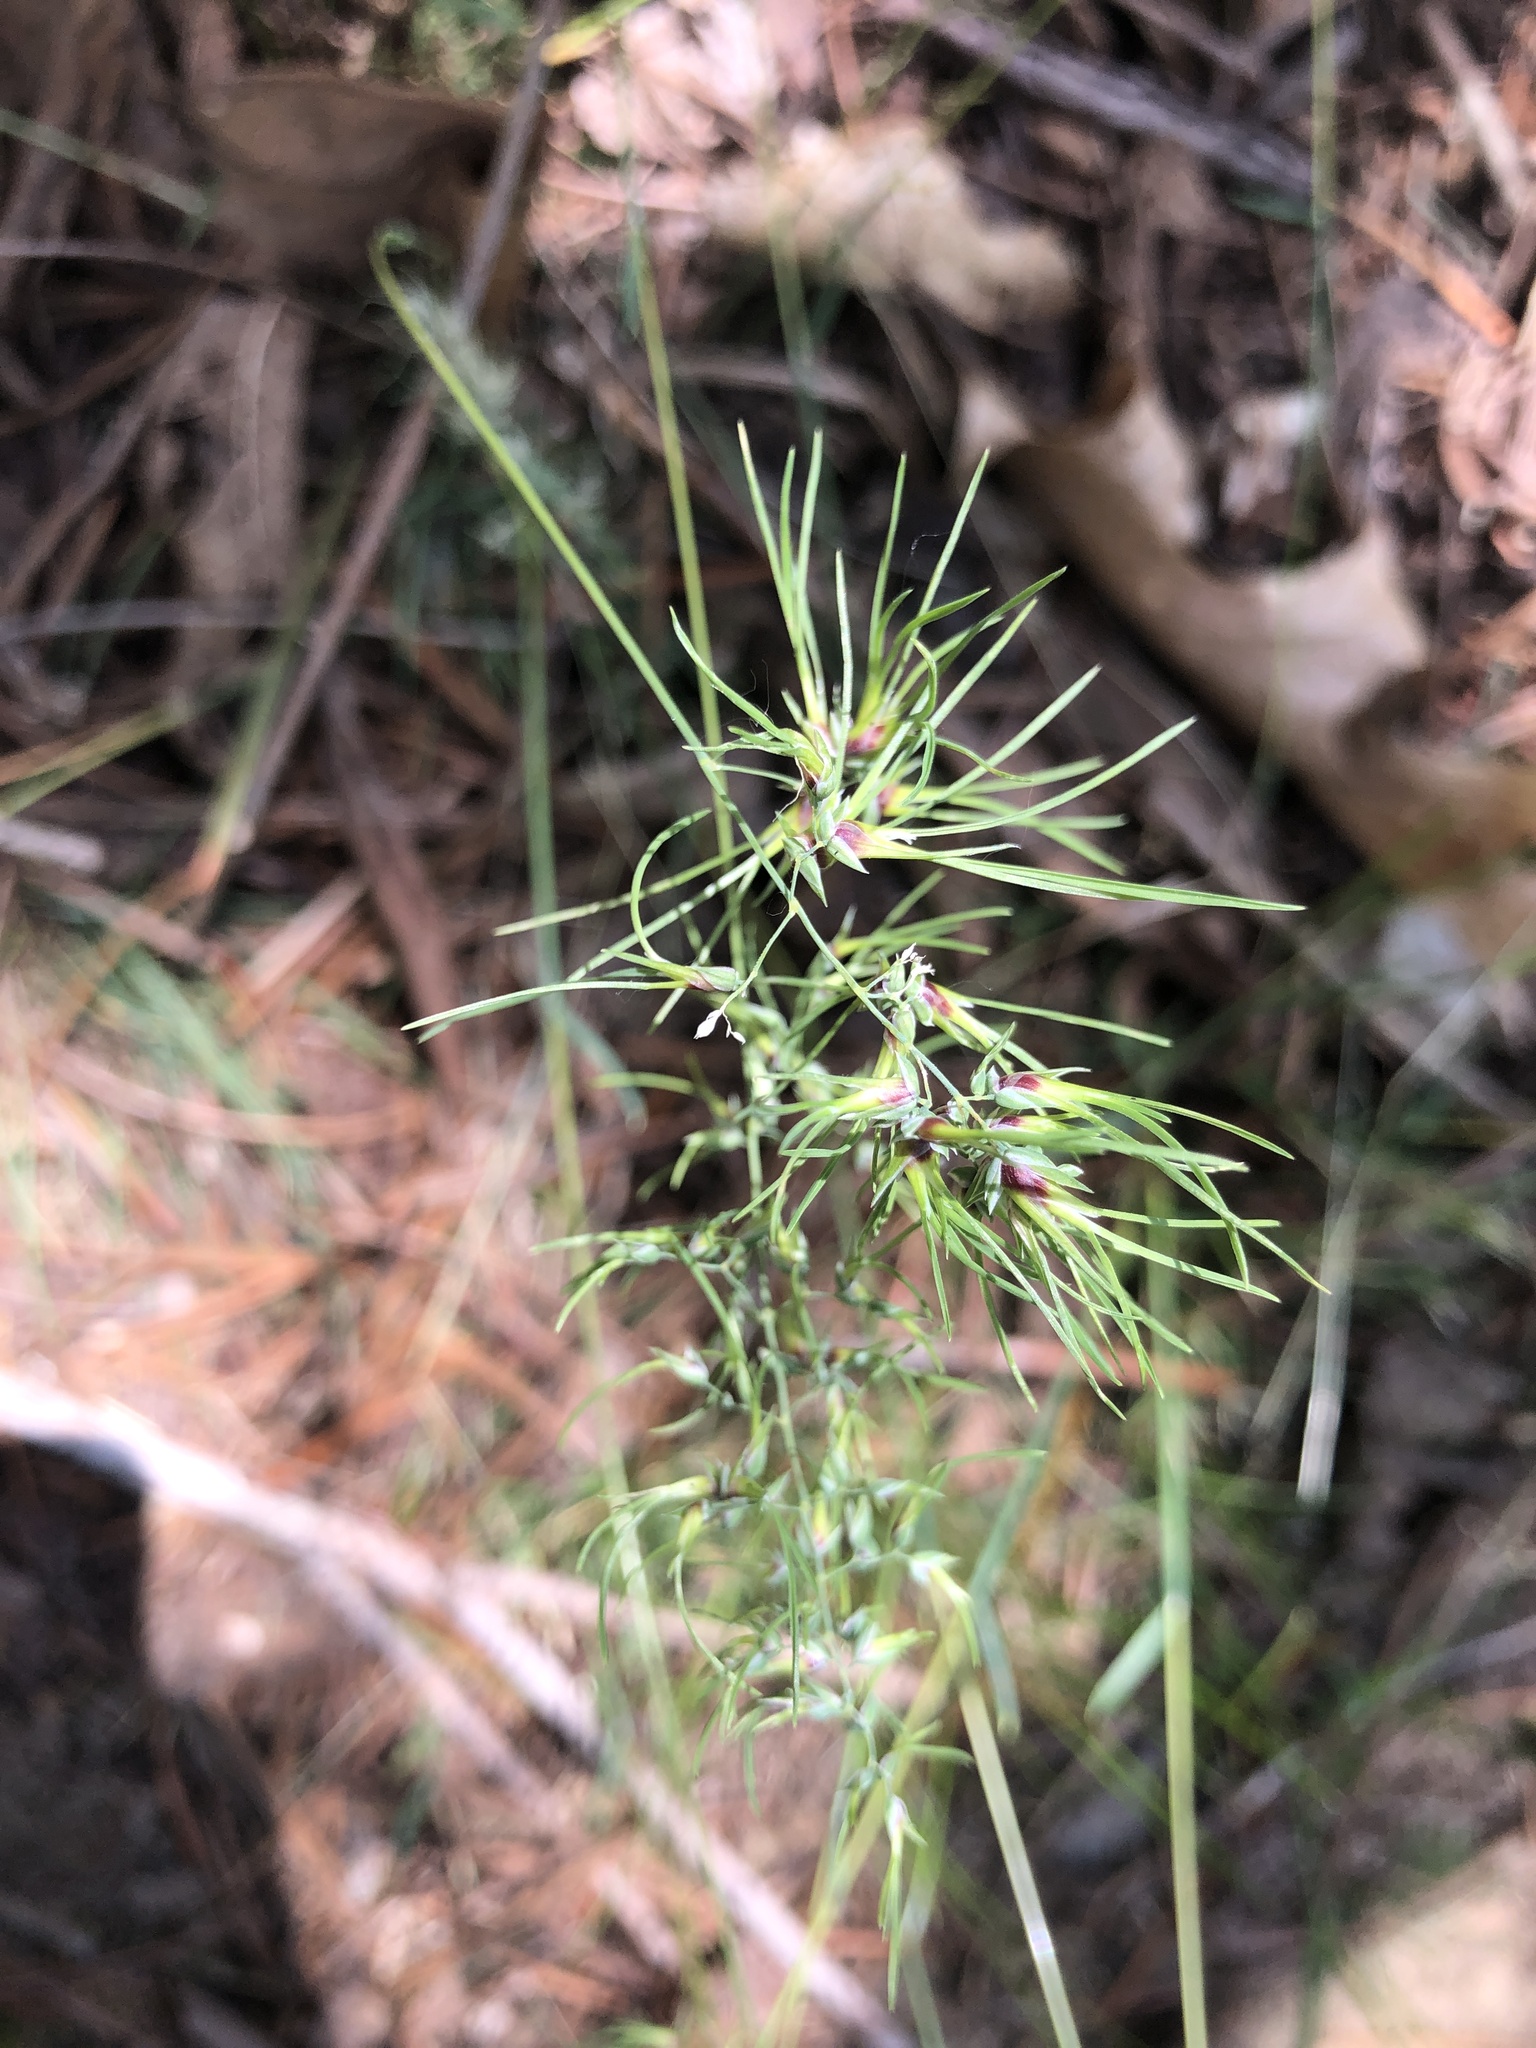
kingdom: Plantae
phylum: Tracheophyta
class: Liliopsida
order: Poales
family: Poaceae
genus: Poa
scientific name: Poa bulbosa
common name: Bulbous bluegrass
